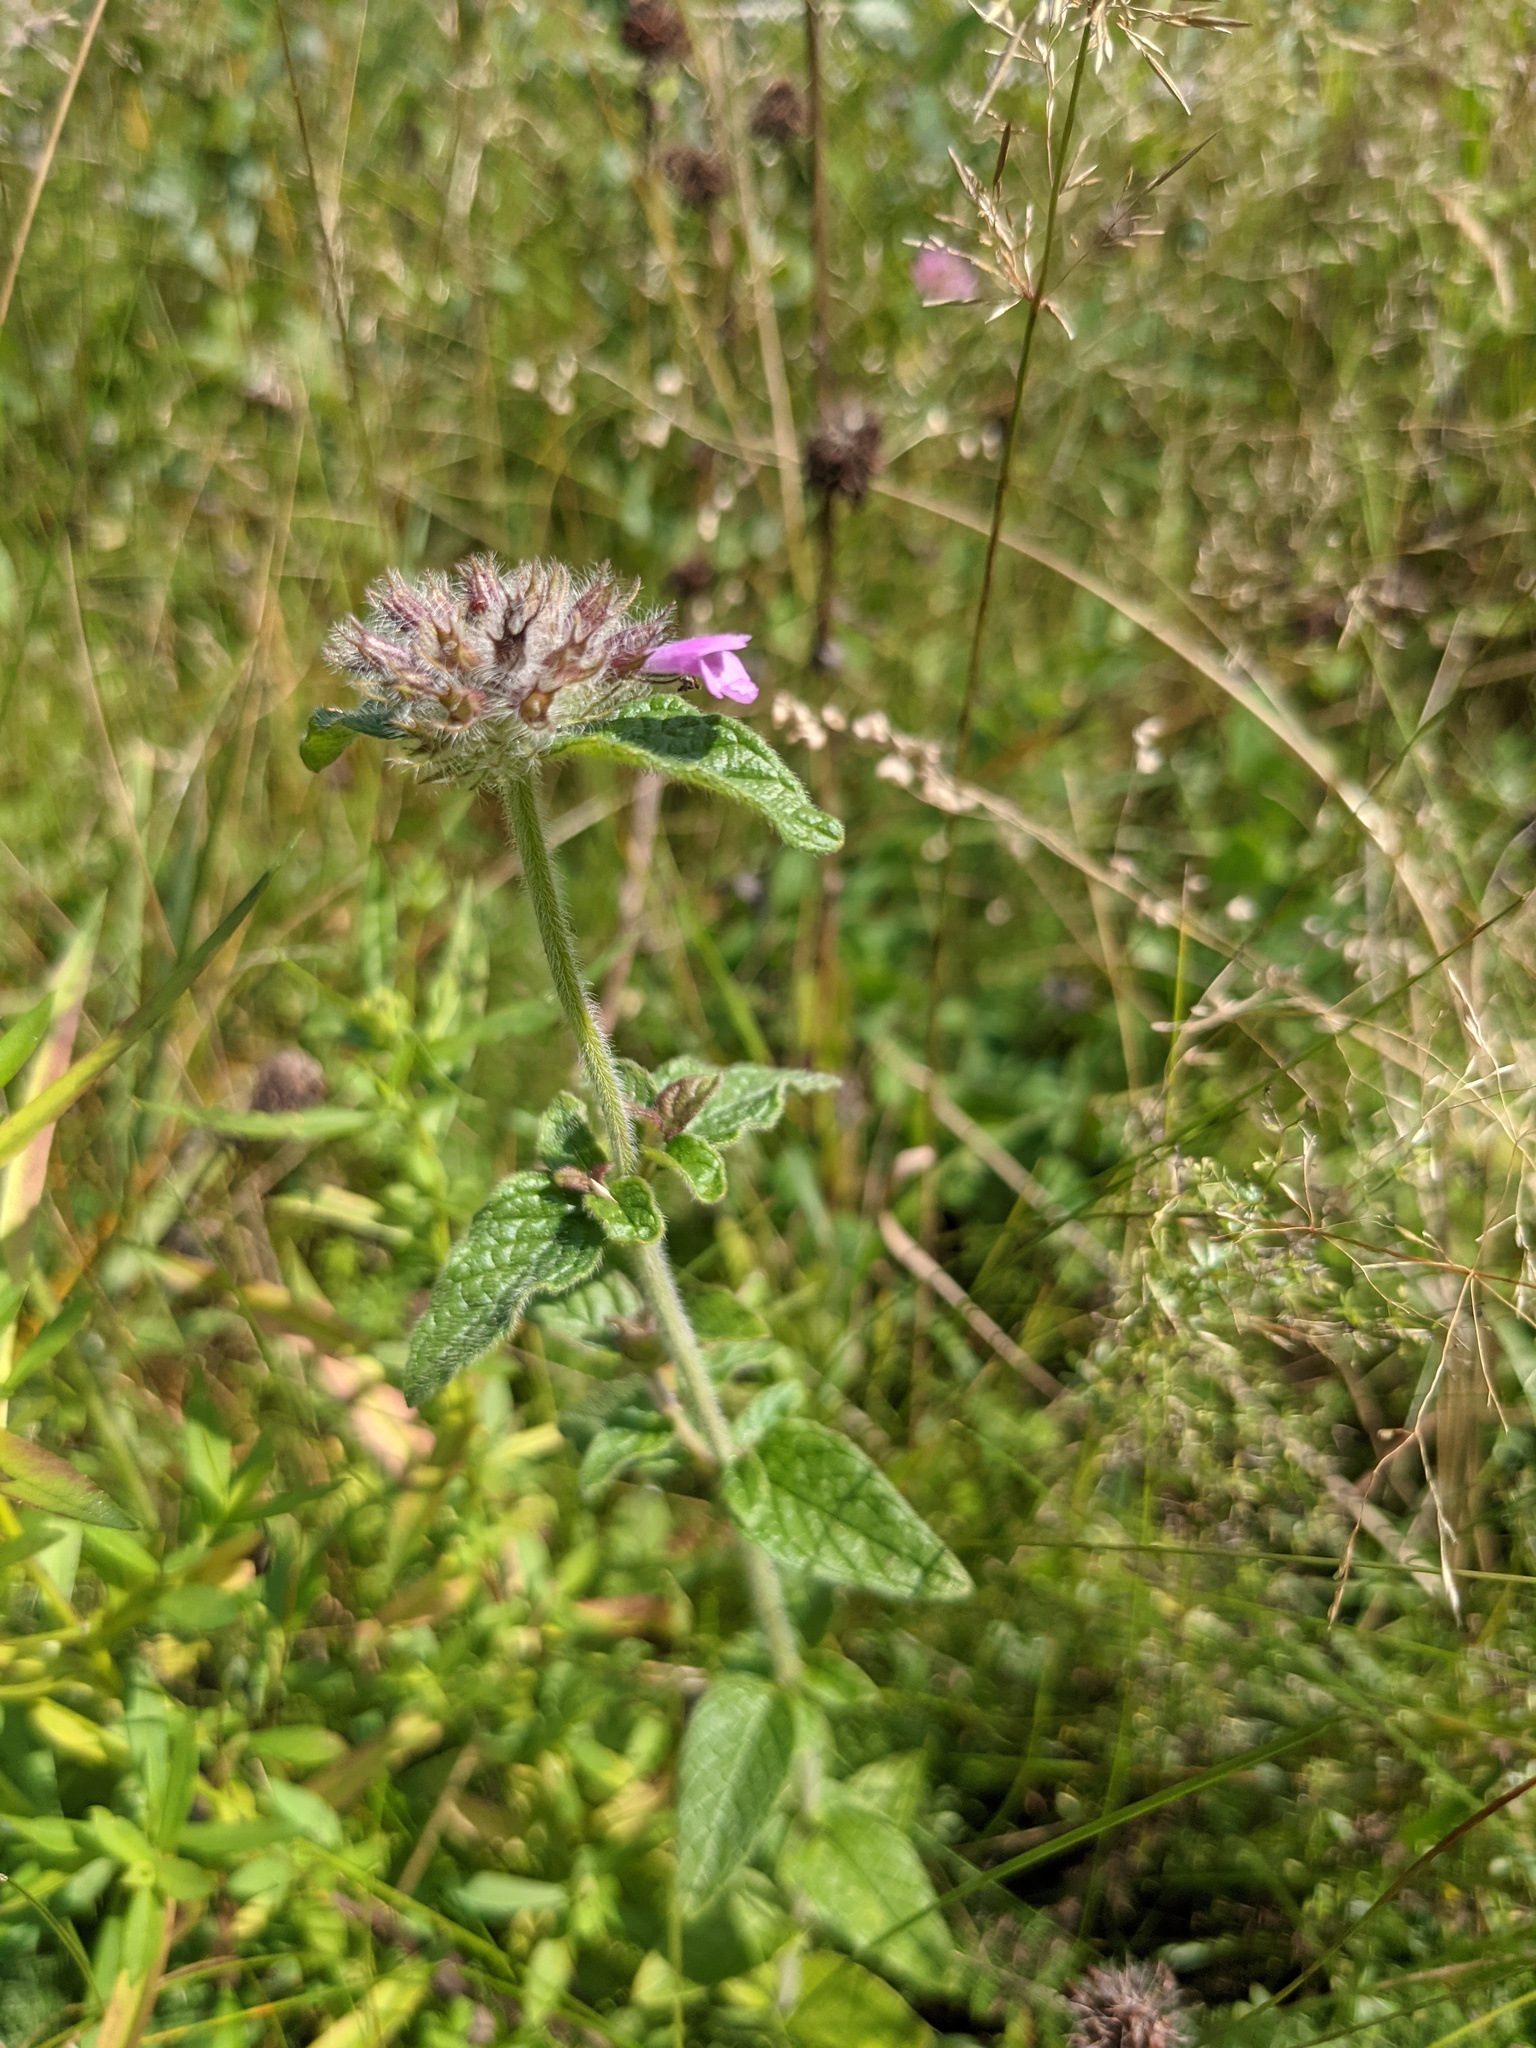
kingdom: Plantae
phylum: Tracheophyta
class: Magnoliopsida
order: Lamiales
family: Lamiaceae
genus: Clinopodium
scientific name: Clinopodium vulgare
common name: Wild basil
